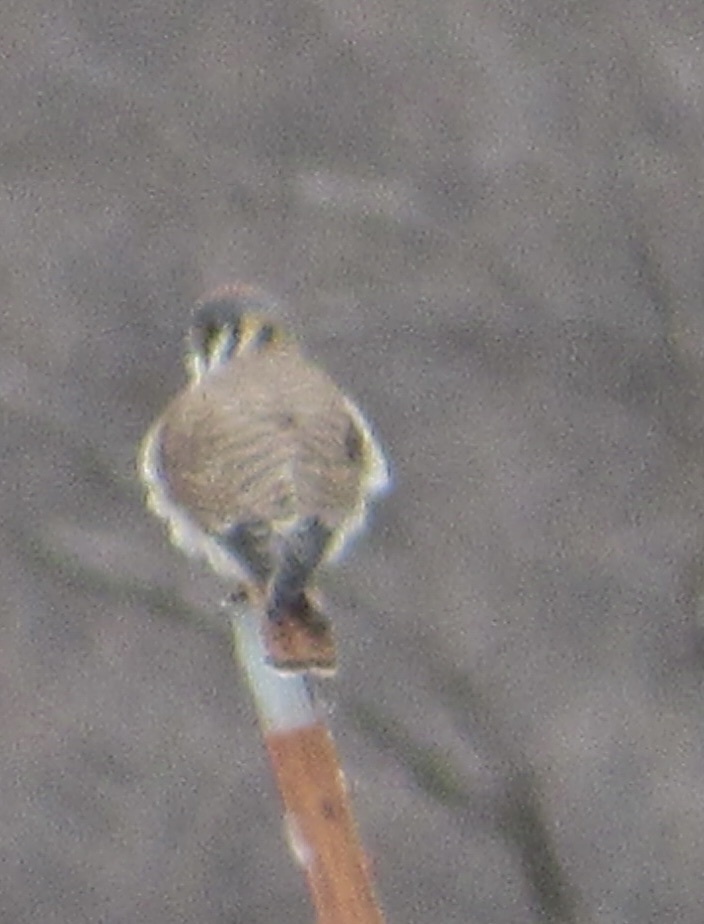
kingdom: Animalia
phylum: Chordata
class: Aves
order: Falconiformes
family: Falconidae
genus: Falco
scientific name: Falco sparverius
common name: American kestrel
